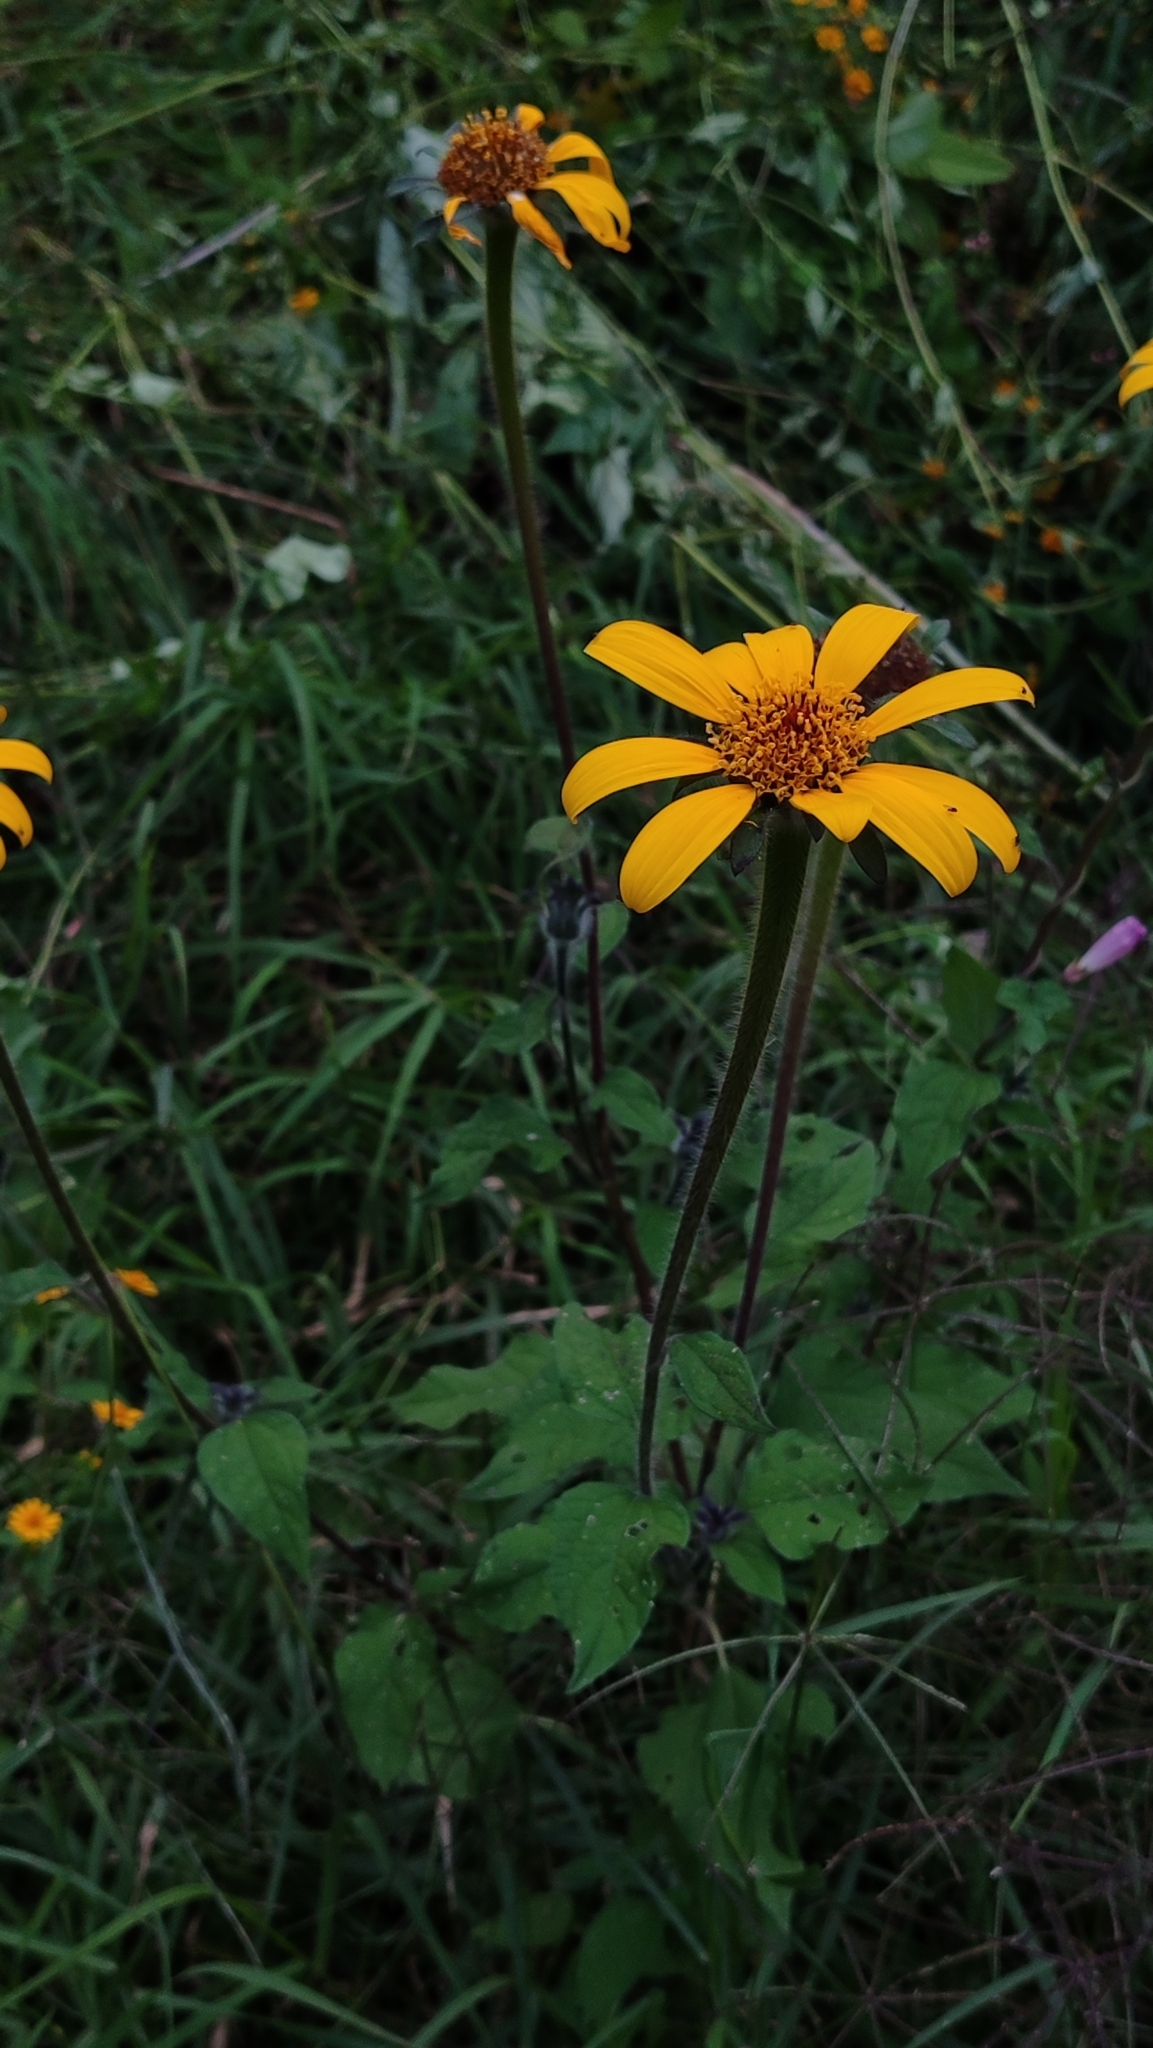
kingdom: Plantae
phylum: Tracheophyta
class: Magnoliopsida
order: Asterales
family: Asteraceae
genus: Tithonia
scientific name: Tithonia tubaeformis
